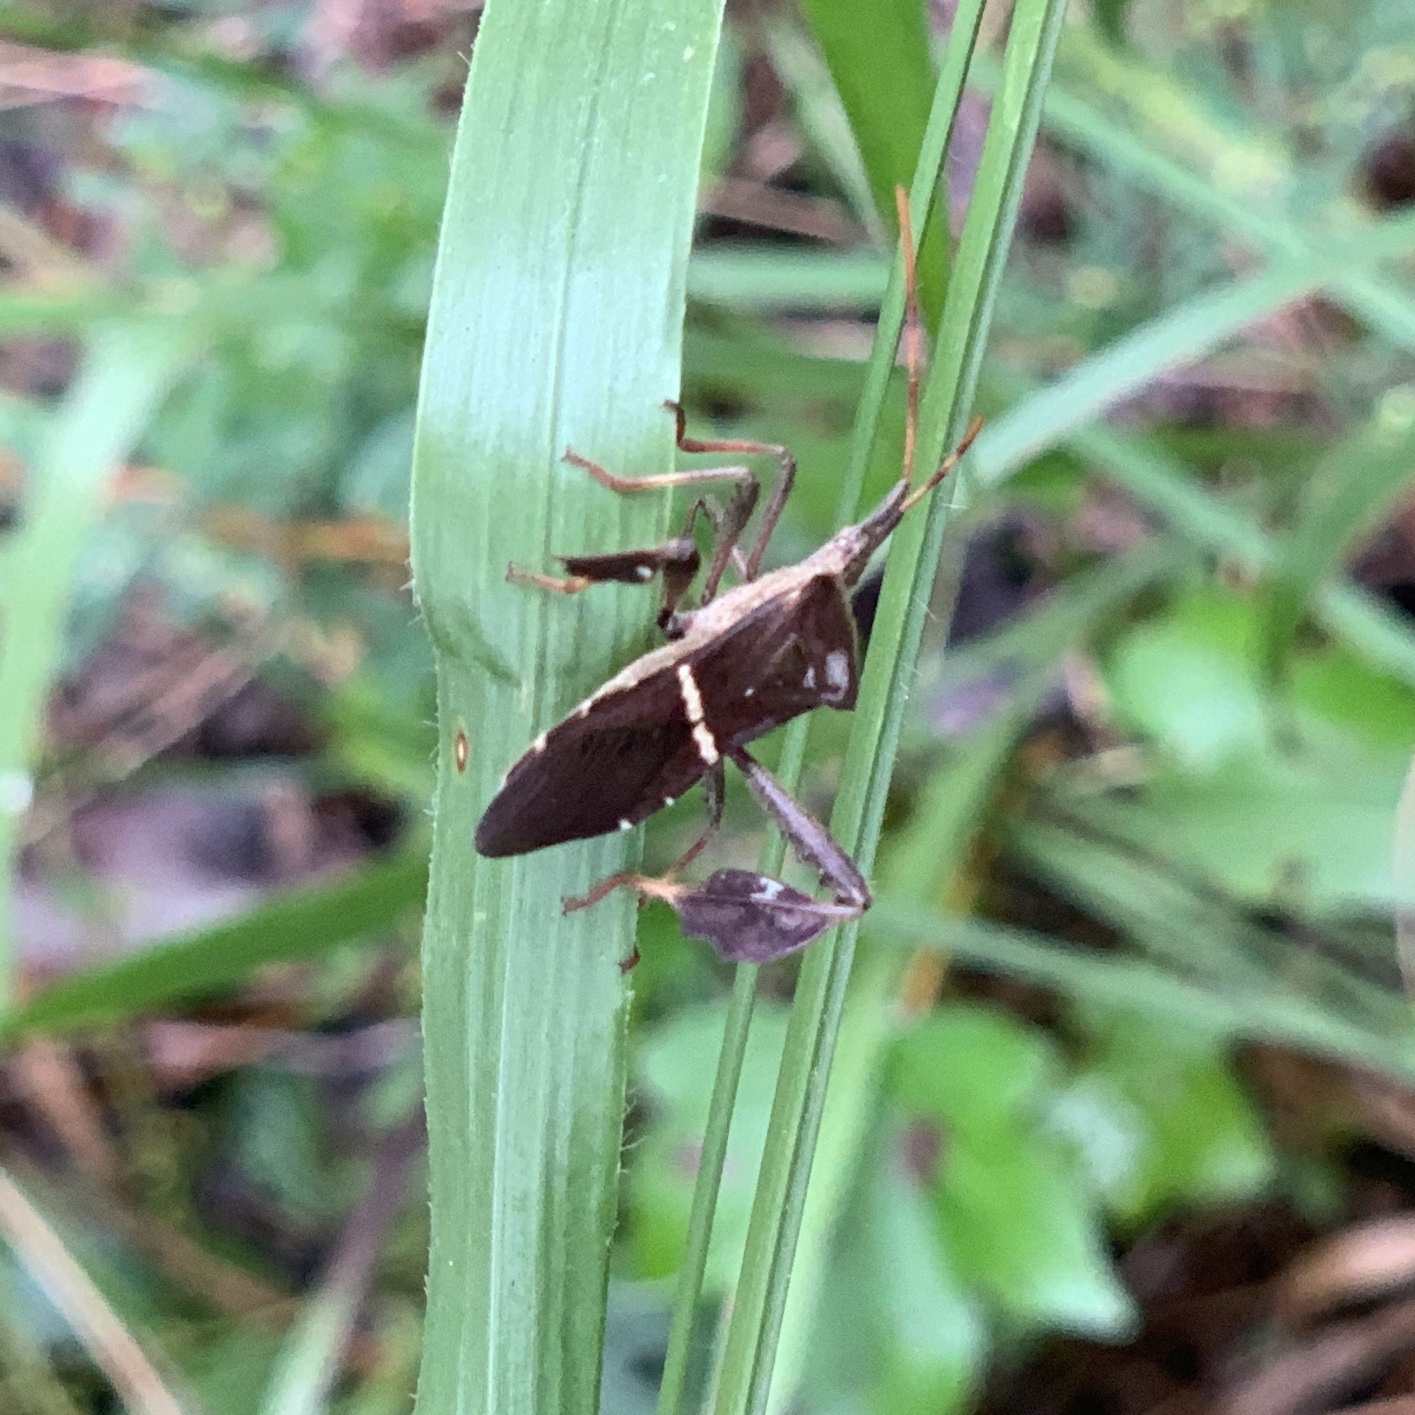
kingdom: Animalia
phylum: Arthropoda
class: Insecta
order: Hemiptera
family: Coreidae
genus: Leptoglossus
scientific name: Leptoglossus phyllopus
